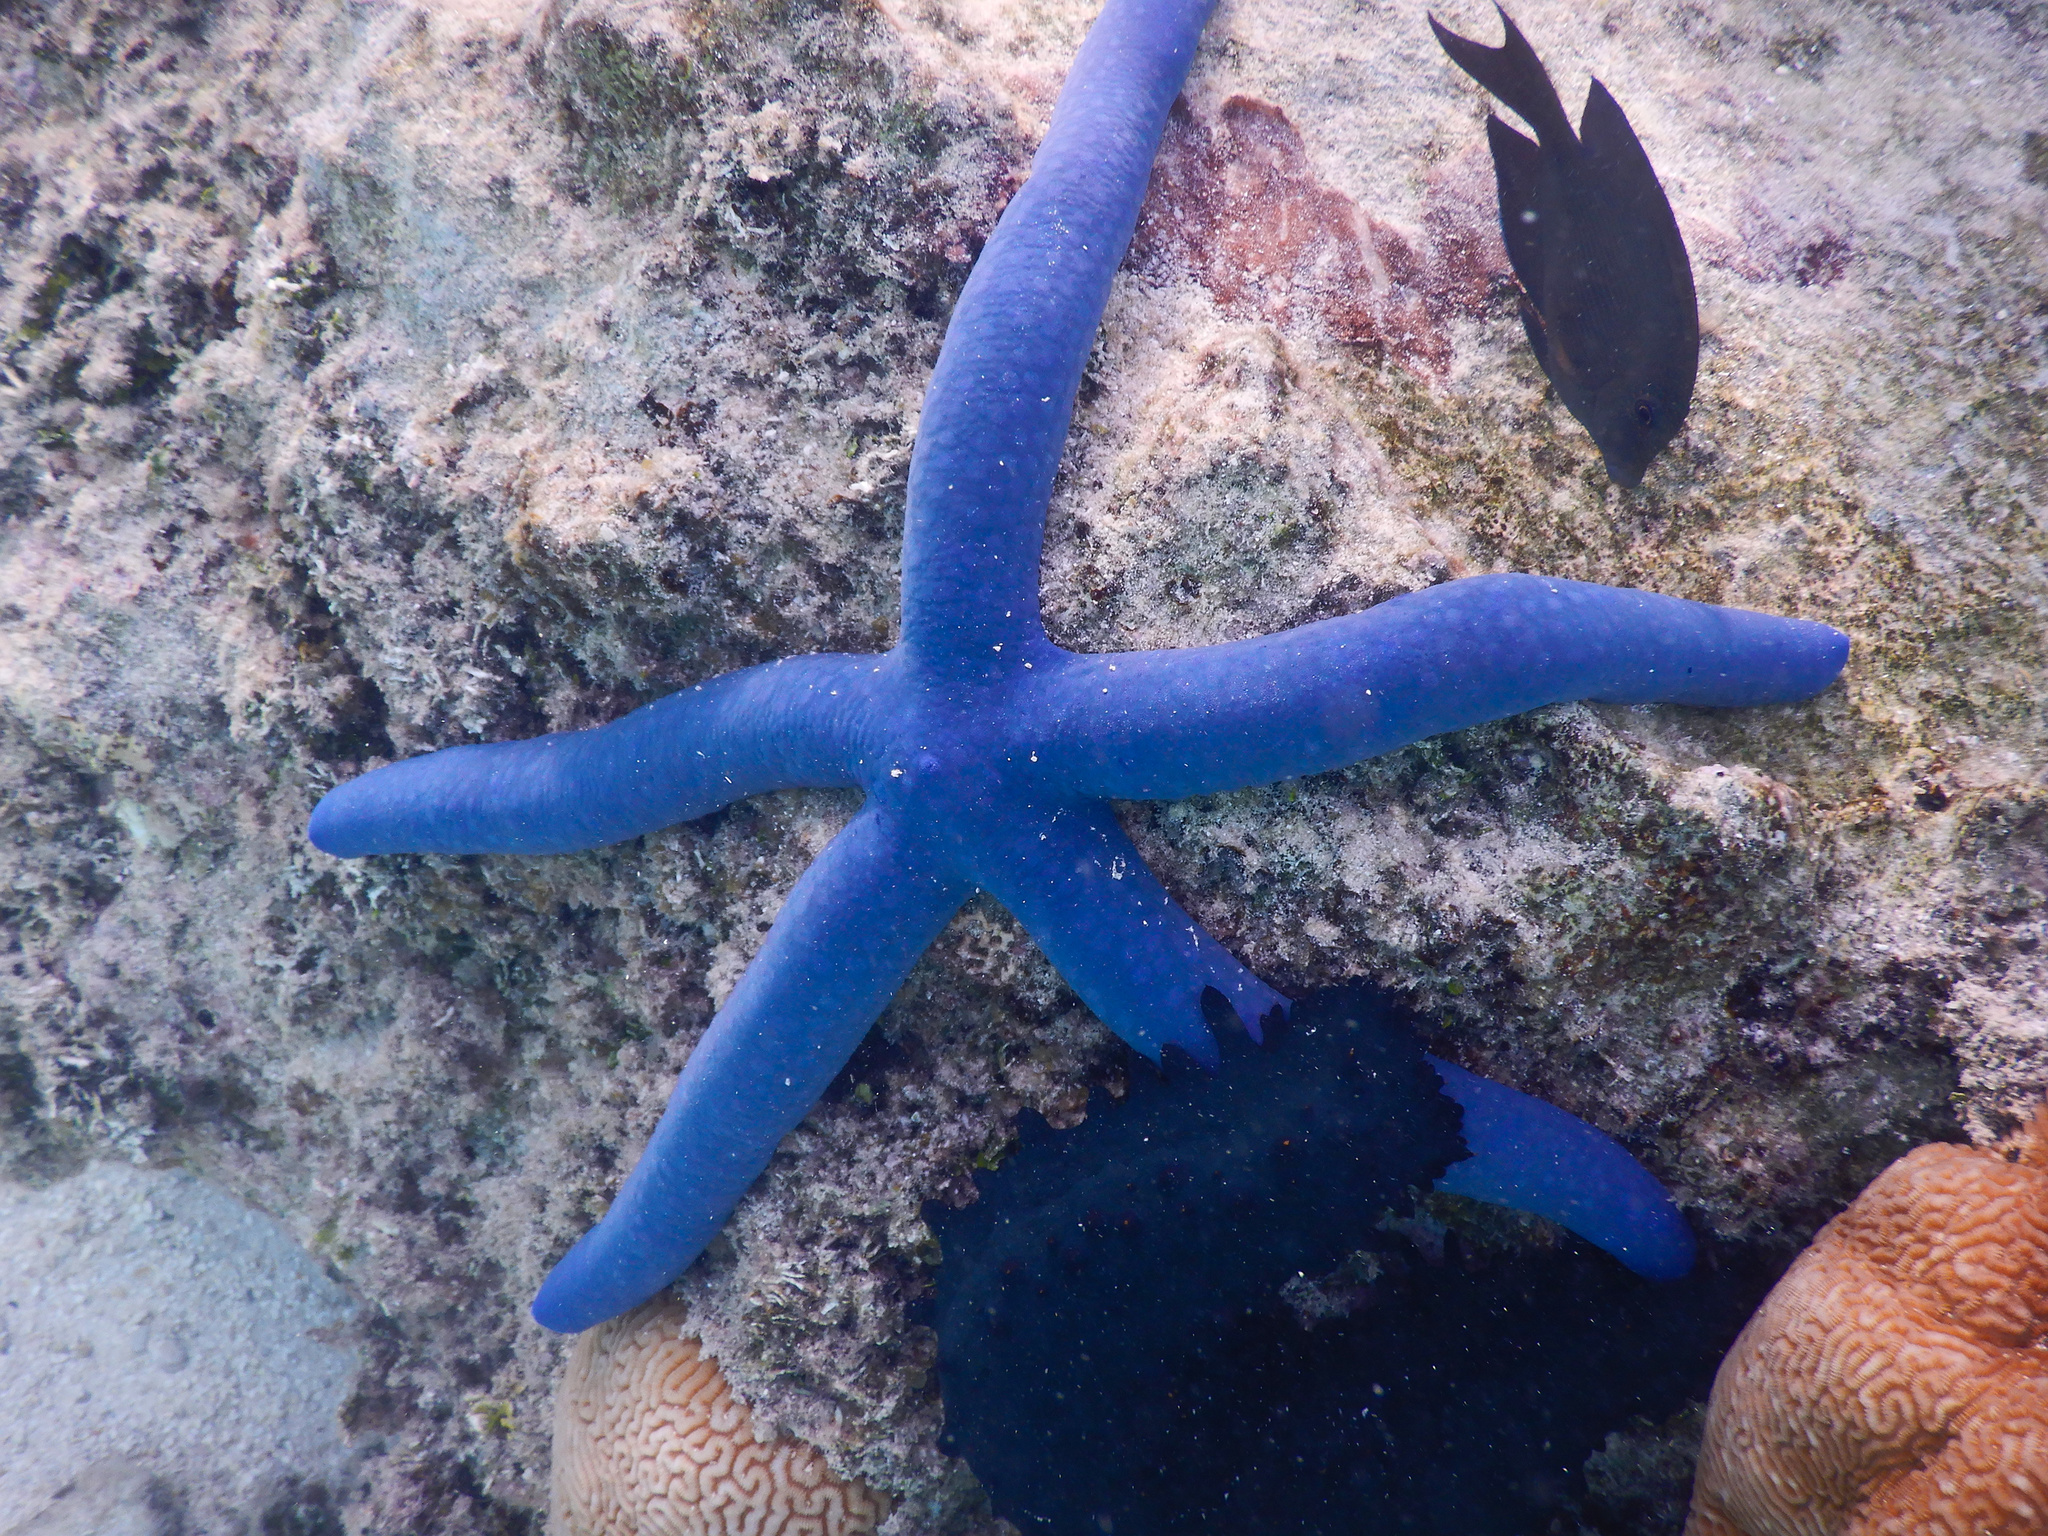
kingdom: Animalia
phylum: Echinodermata
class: Asteroidea
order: Valvatida
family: Ophidiasteridae
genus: Linckia
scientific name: Linckia laevigata
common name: Azure sea star
